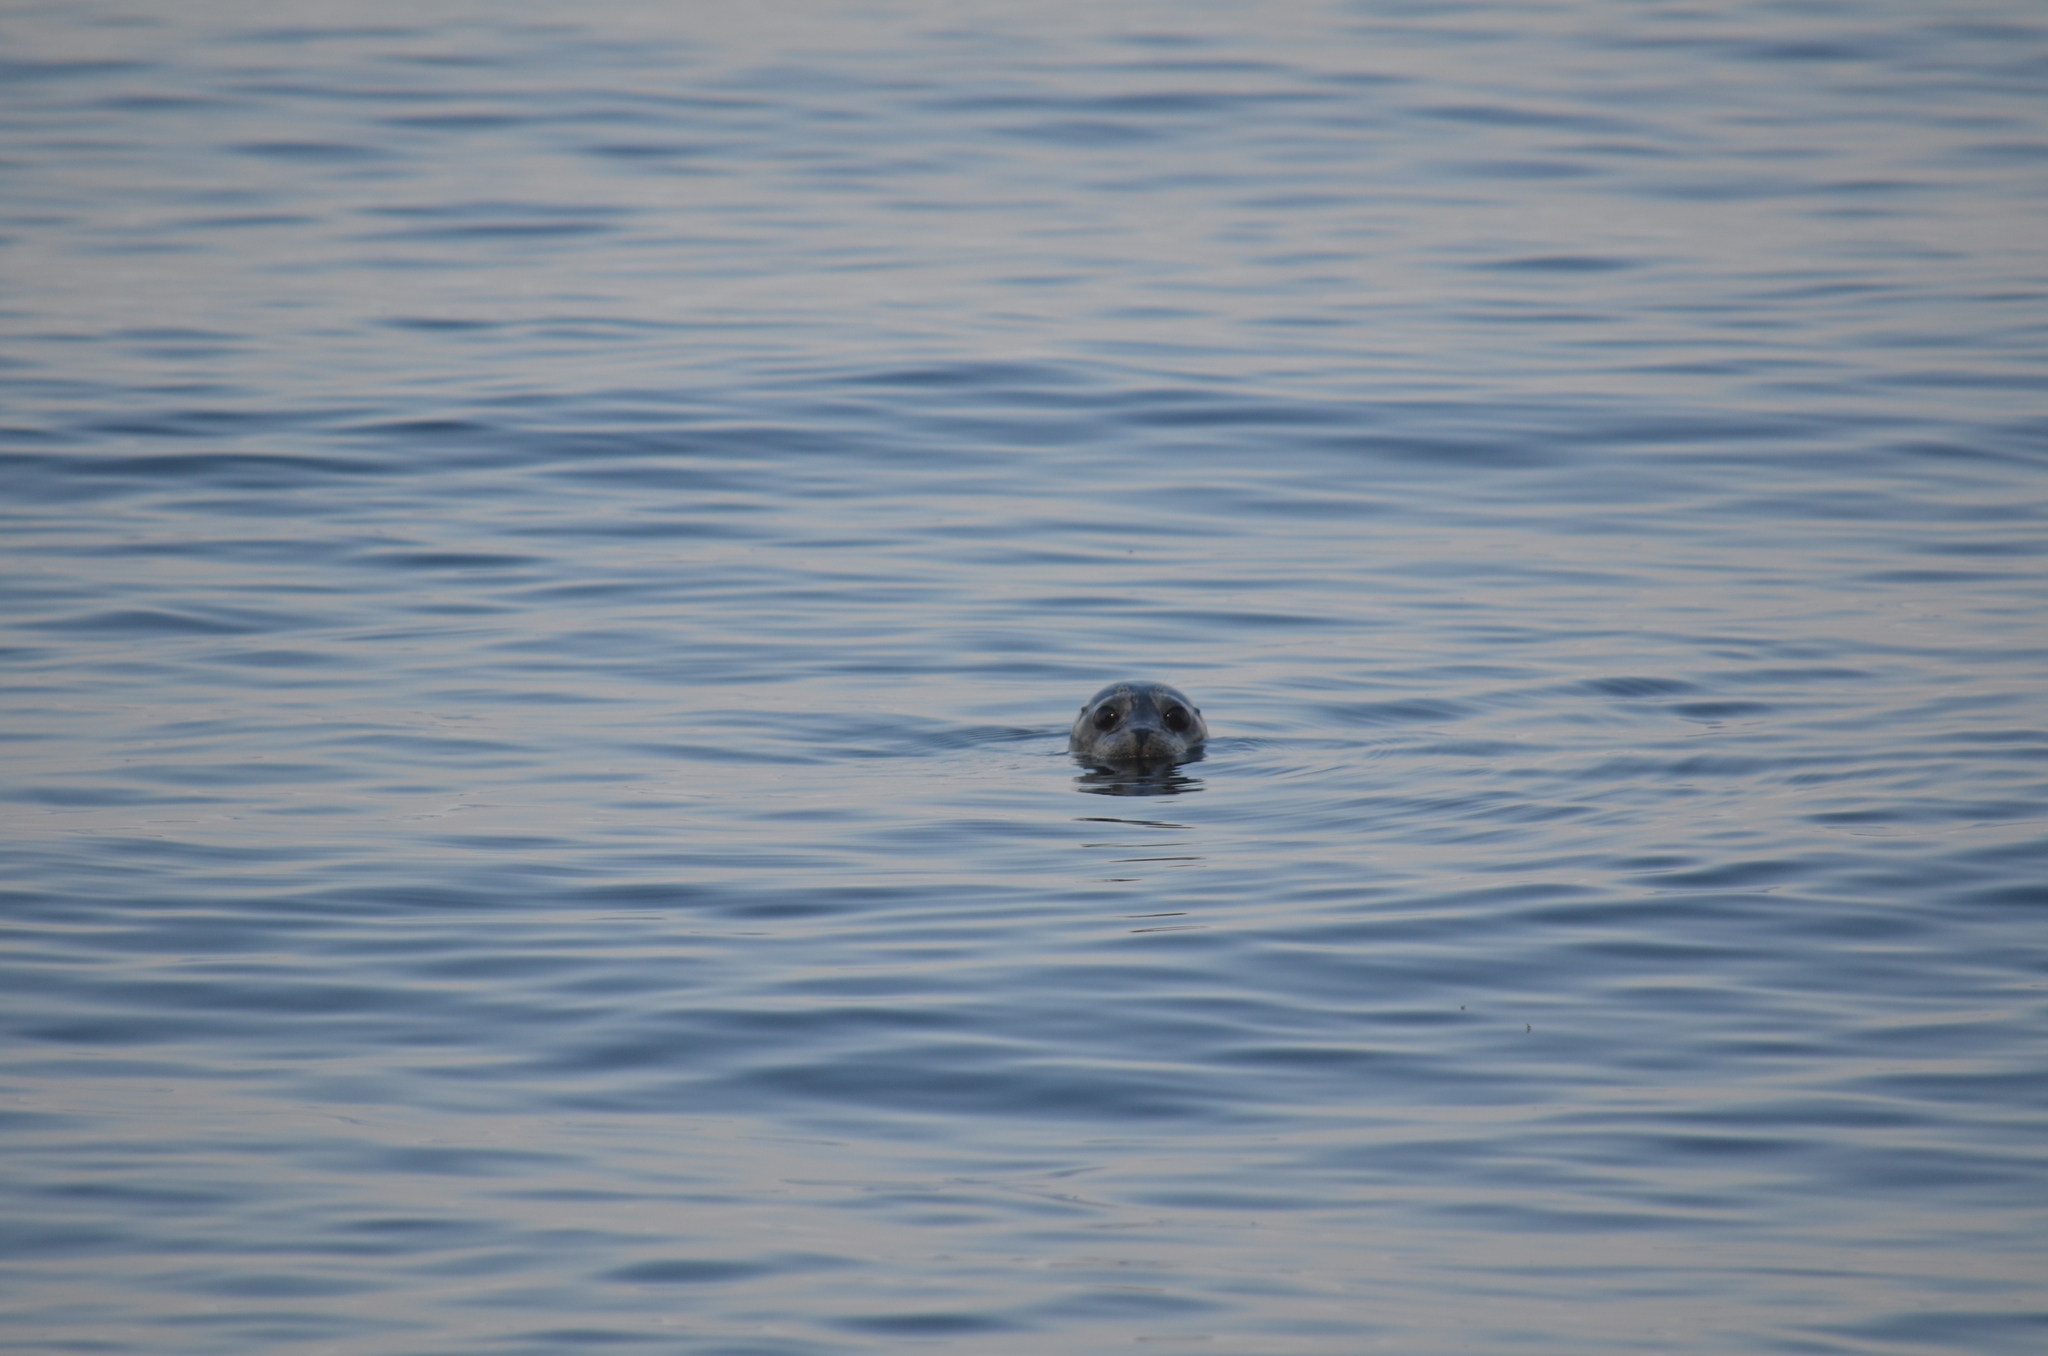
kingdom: Animalia
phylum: Chordata
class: Mammalia
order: Carnivora
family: Phocidae
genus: Phoca
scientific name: Phoca vitulina
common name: Harbor seal
